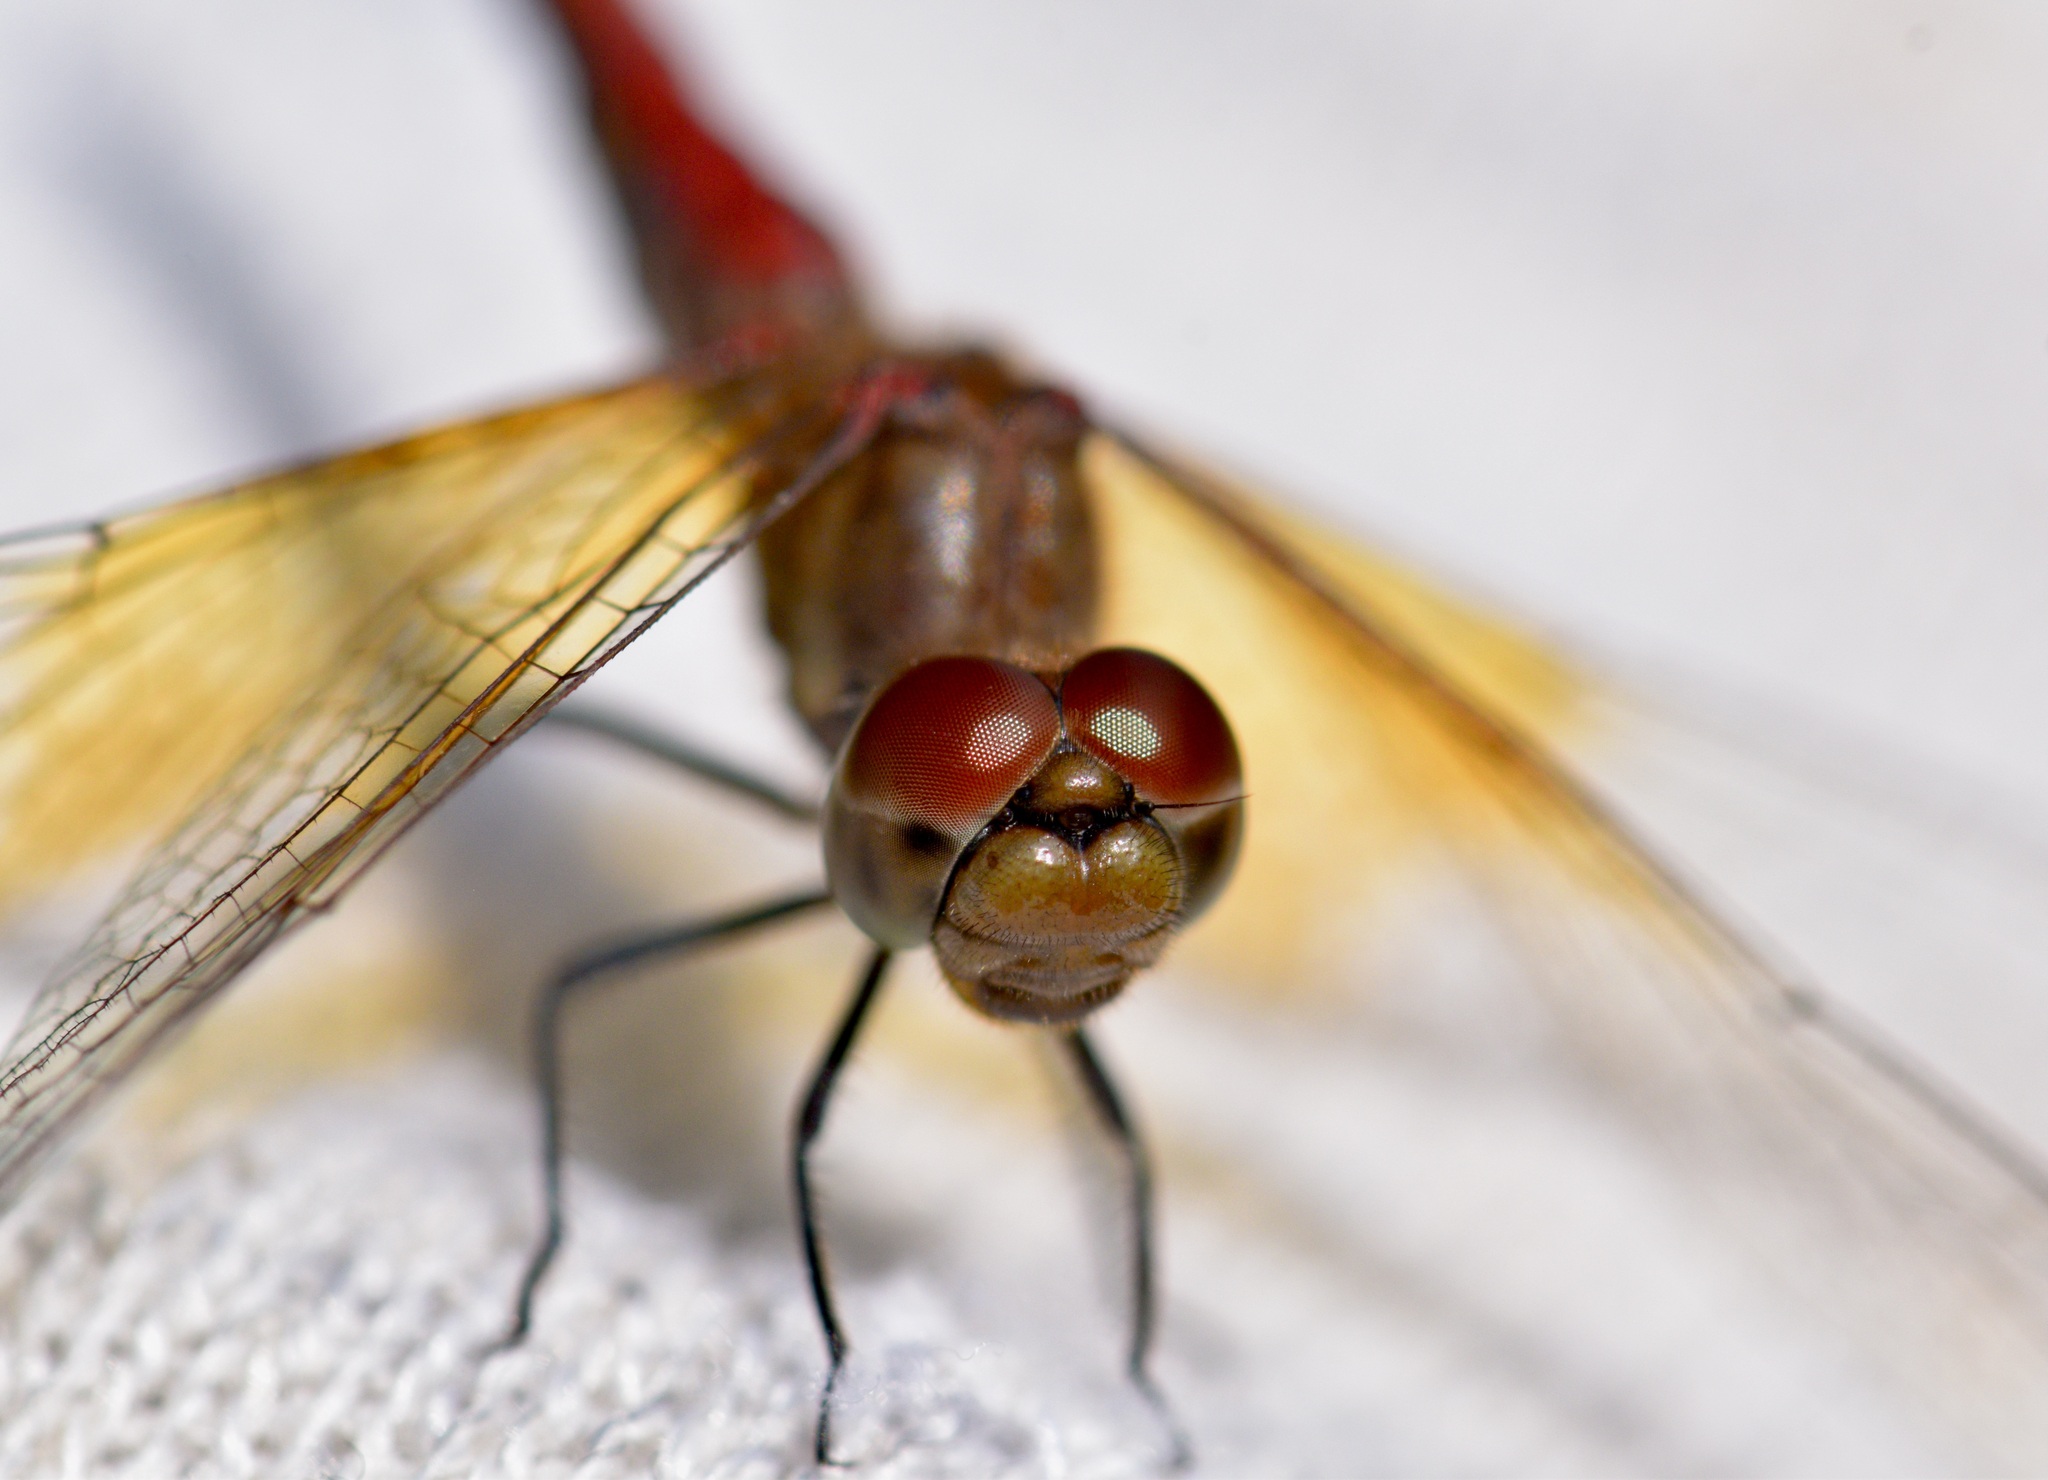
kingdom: Animalia
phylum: Arthropoda
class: Insecta
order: Odonata
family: Libellulidae
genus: Sympetrum
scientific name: Sympetrum semicinctum
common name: Band-winged meadowhawk
